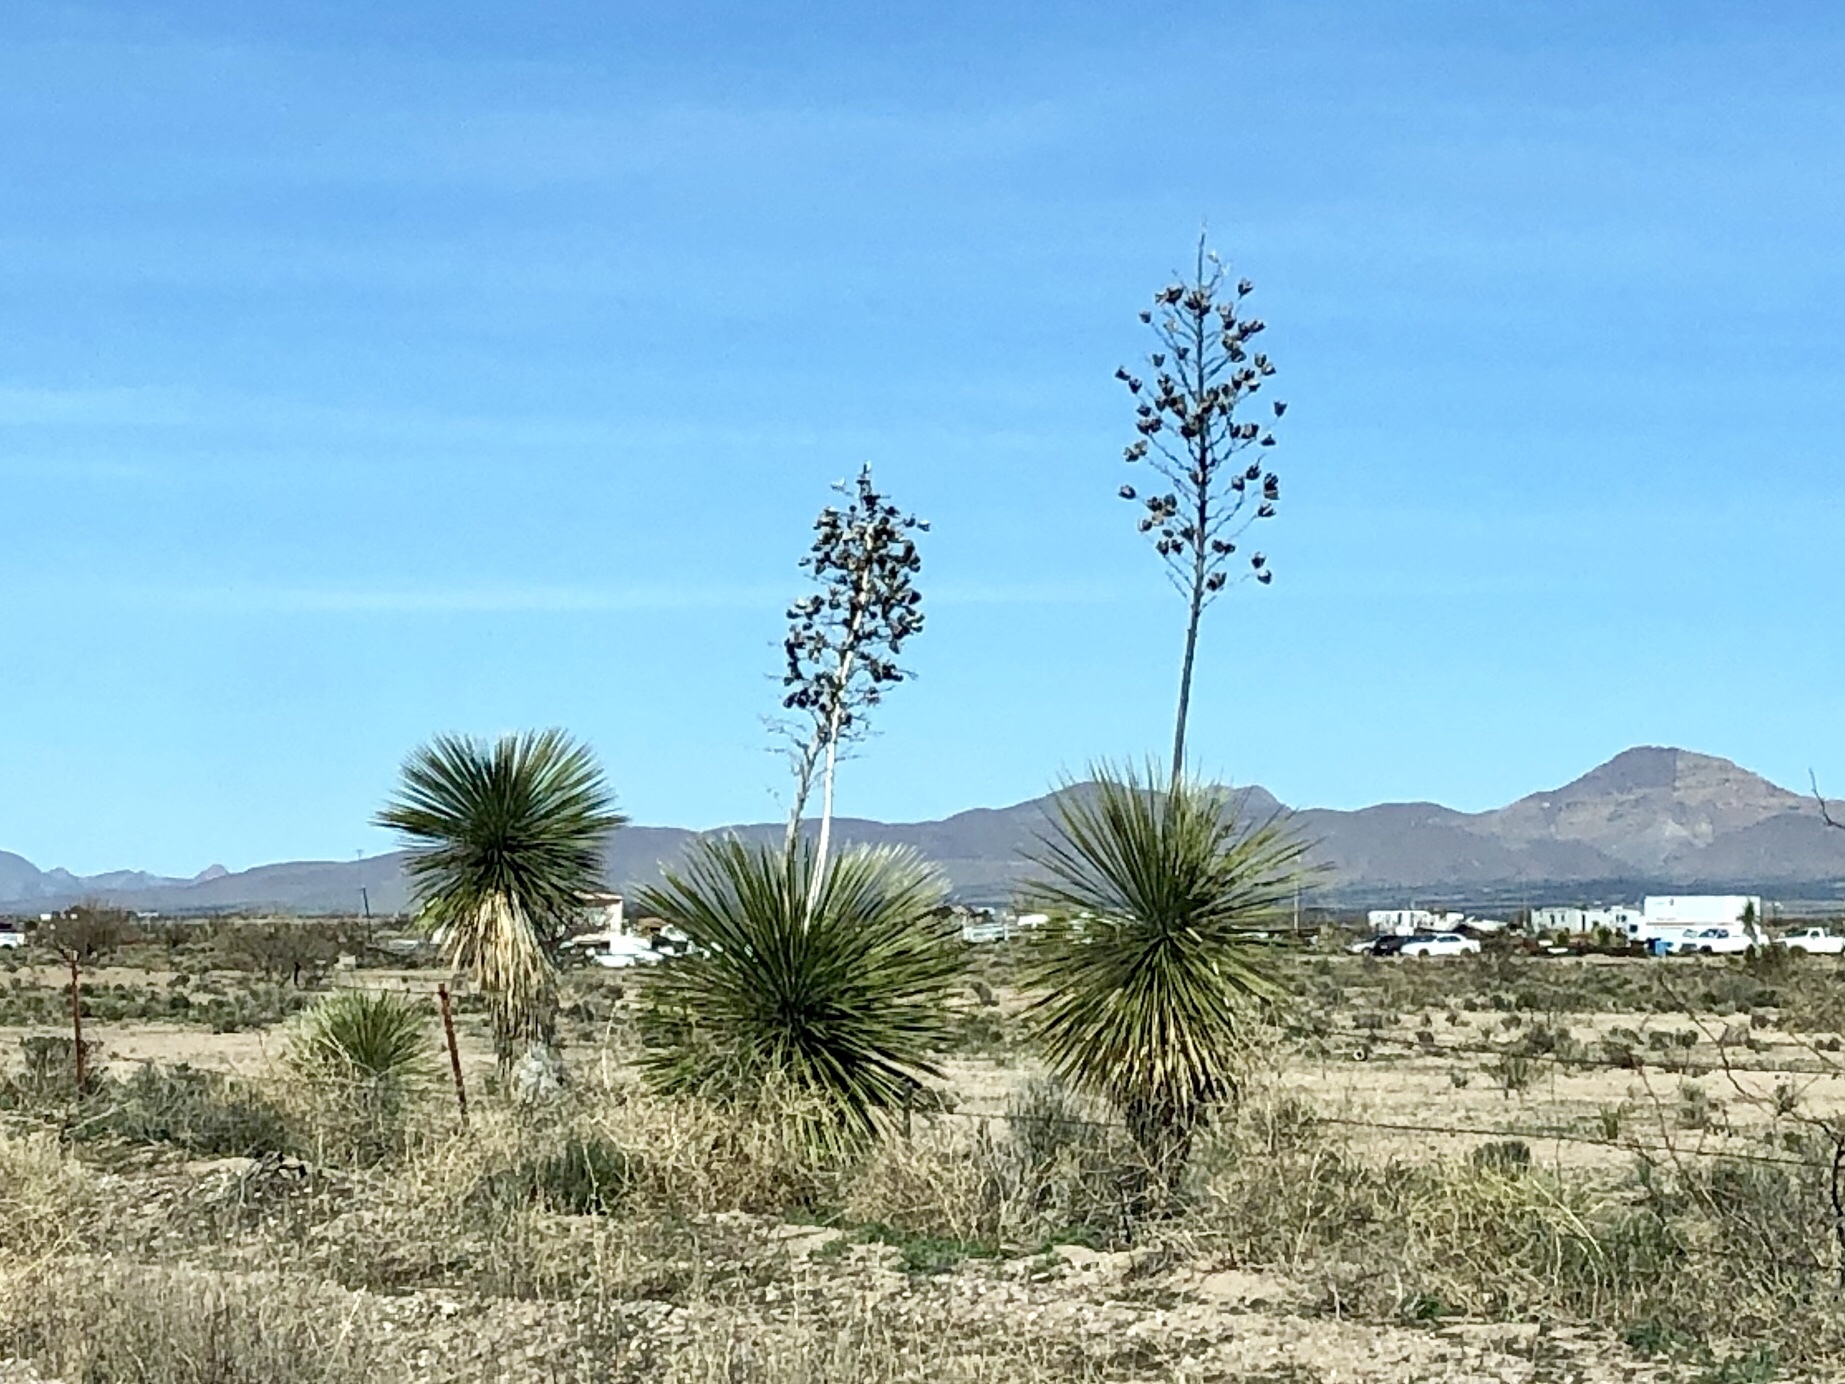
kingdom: Plantae
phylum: Tracheophyta
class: Liliopsida
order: Asparagales
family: Asparagaceae
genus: Yucca
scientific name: Yucca elata
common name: Palmella
